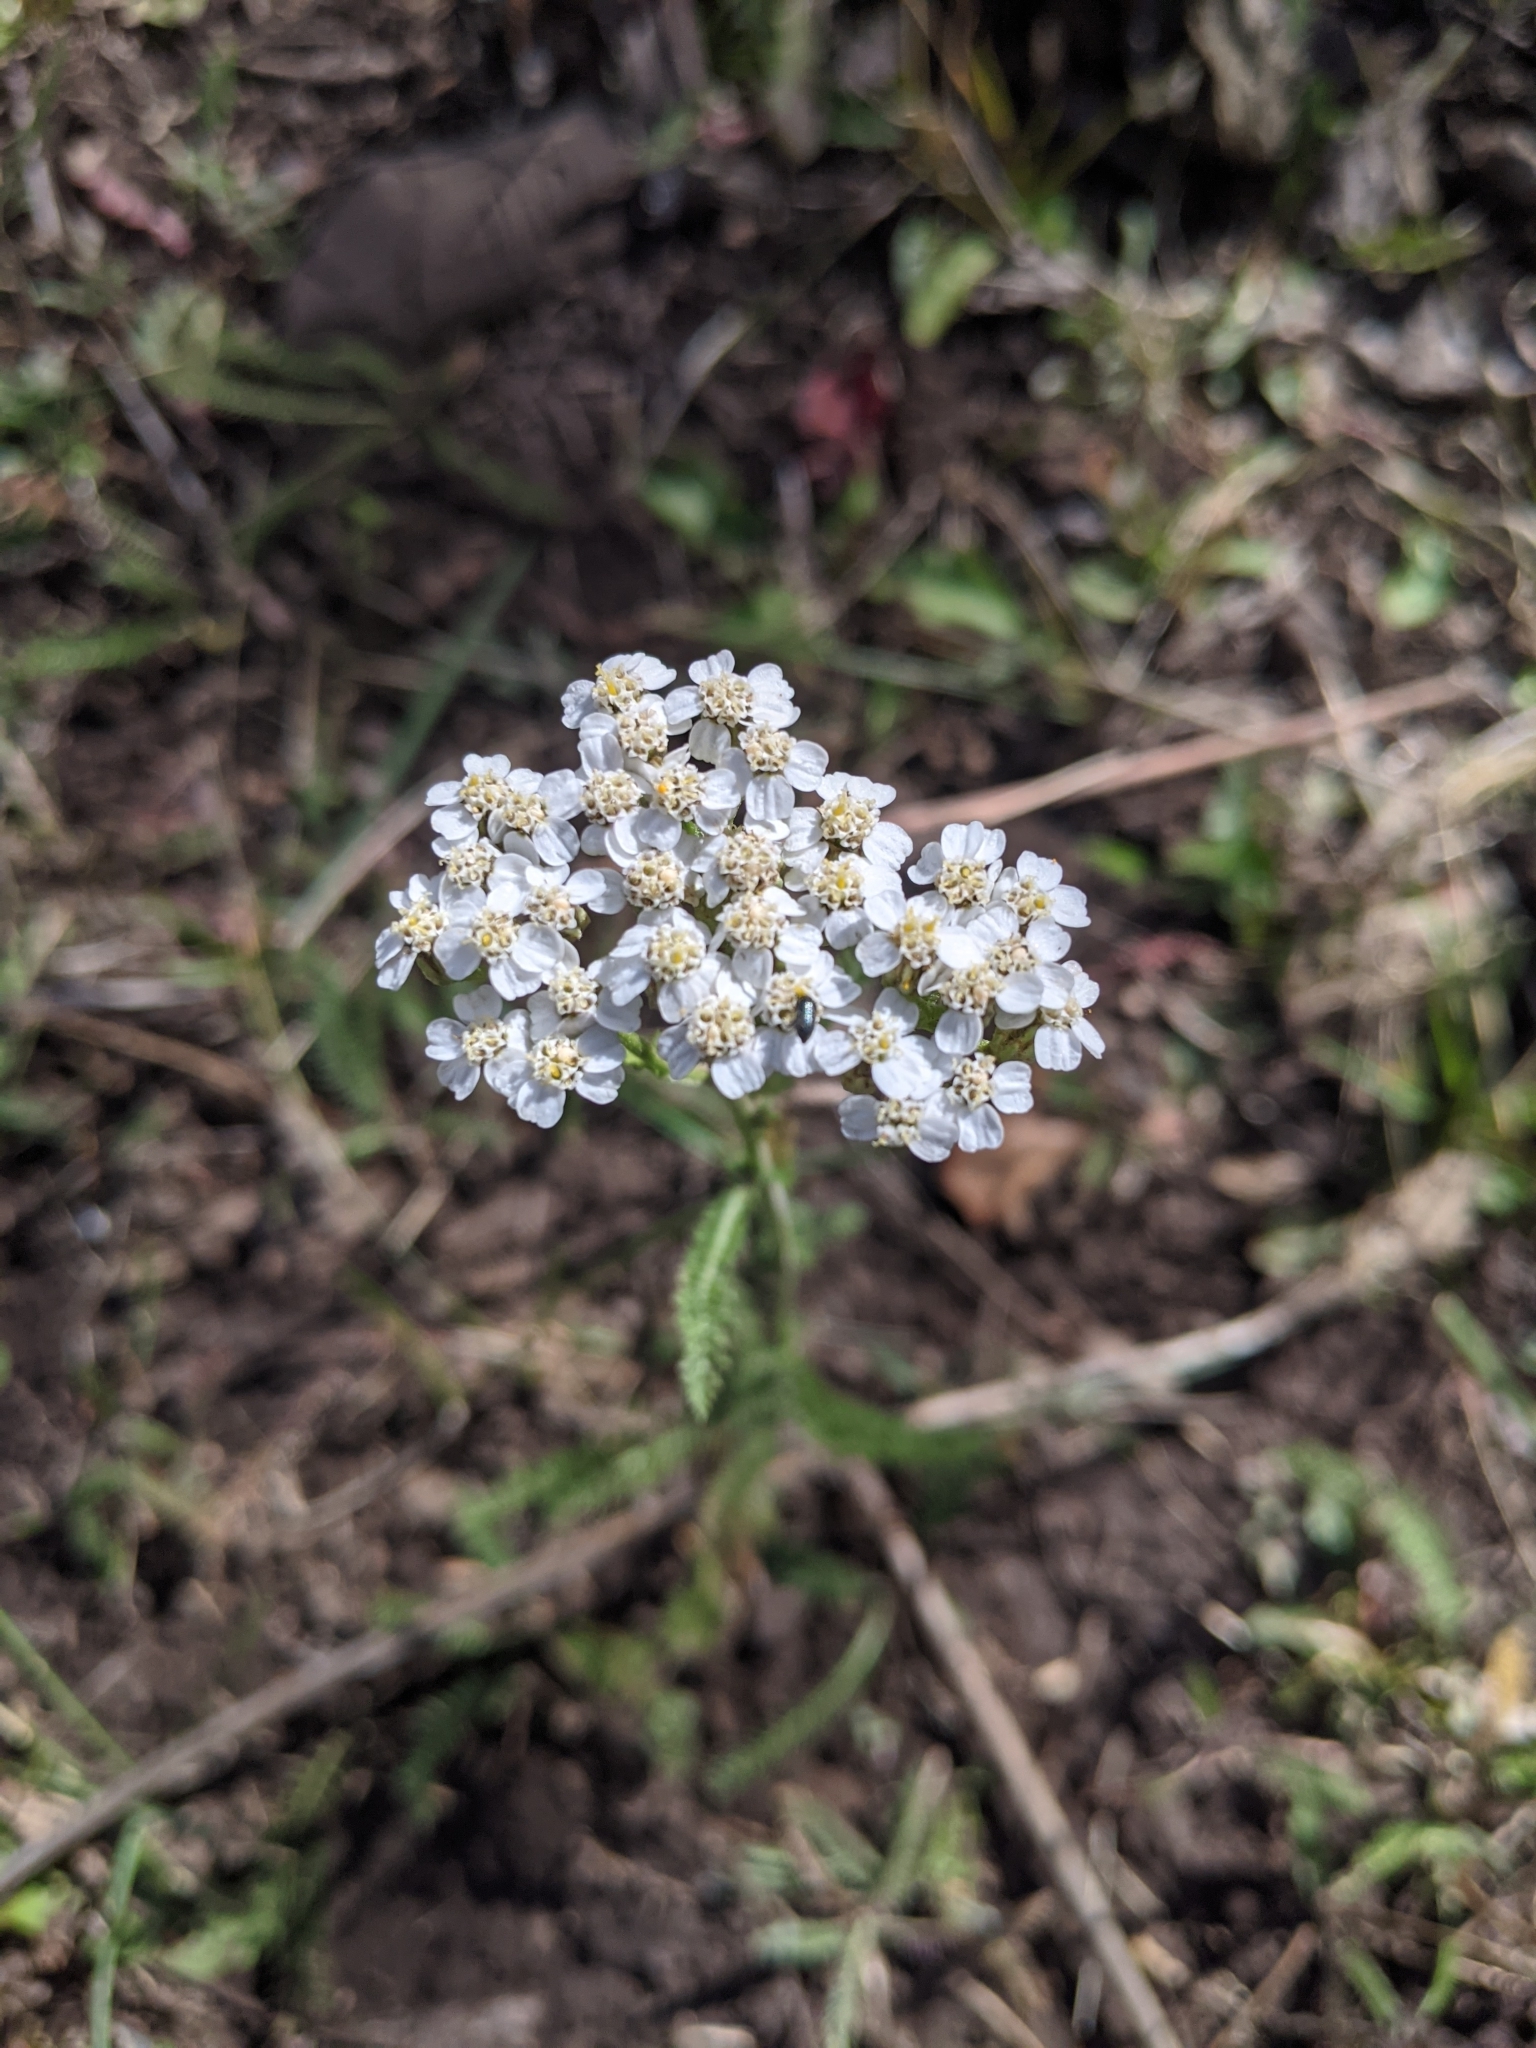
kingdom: Plantae
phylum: Tracheophyta
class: Magnoliopsida
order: Asterales
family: Asteraceae
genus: Achillea
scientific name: Achillea millefolium
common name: Yarrow
